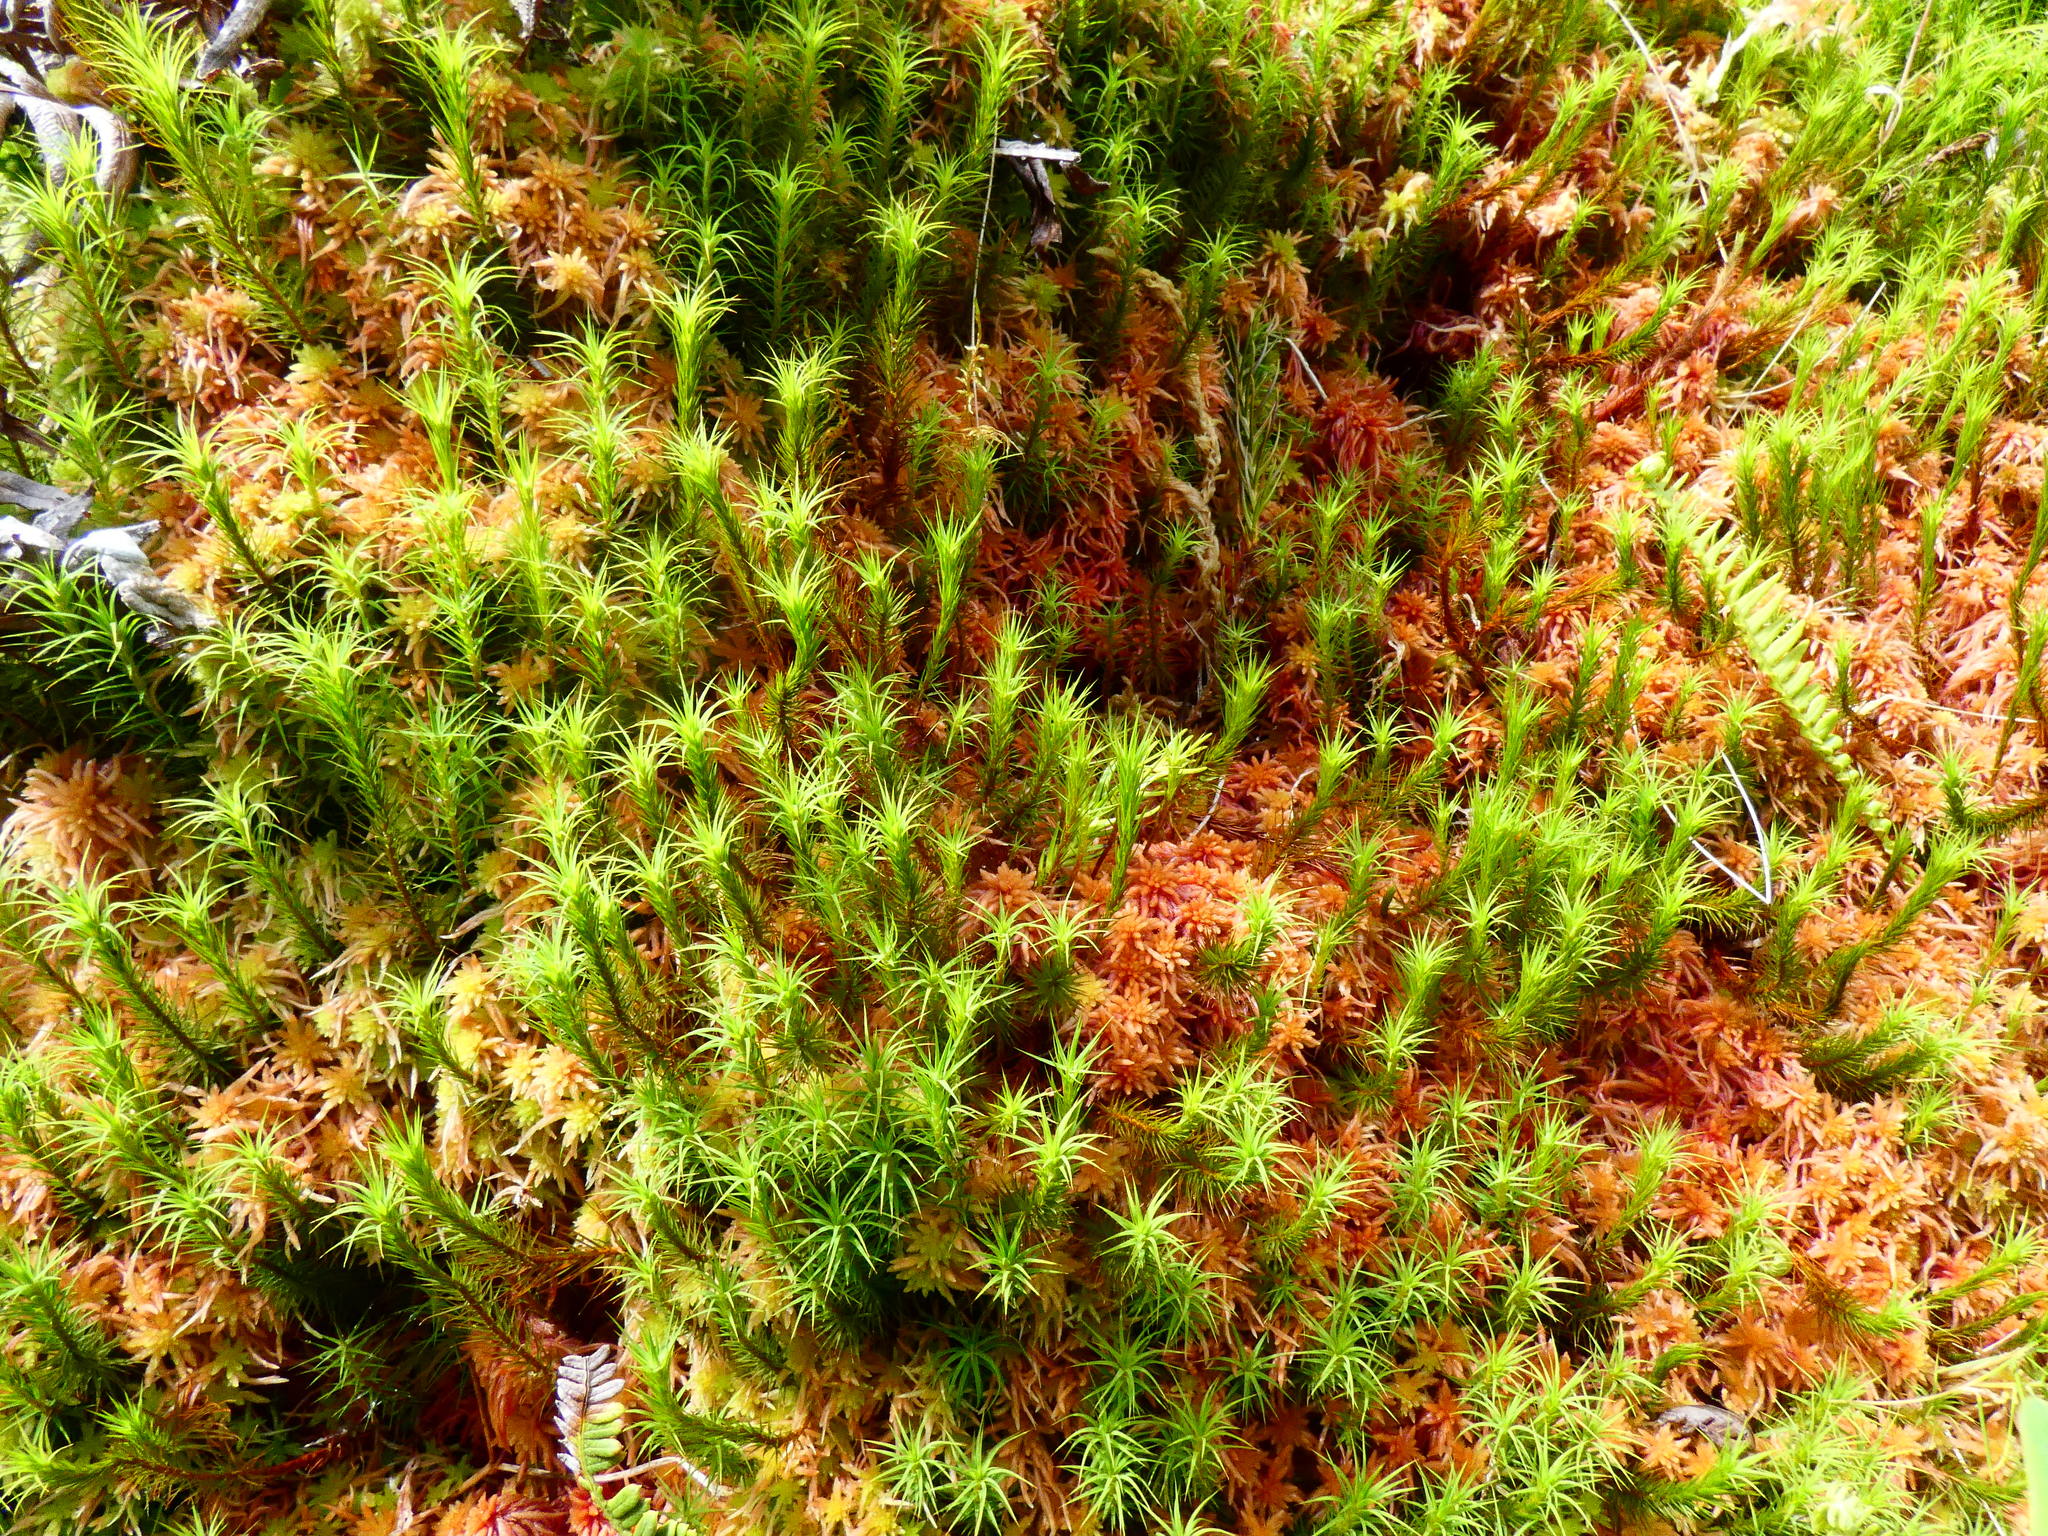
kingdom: Plantae
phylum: Bryophyta
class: Polytrichopsida
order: Polytrichales
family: Polytrichaceae
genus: Polytrichum
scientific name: Polytrichum commune
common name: Common haircap
